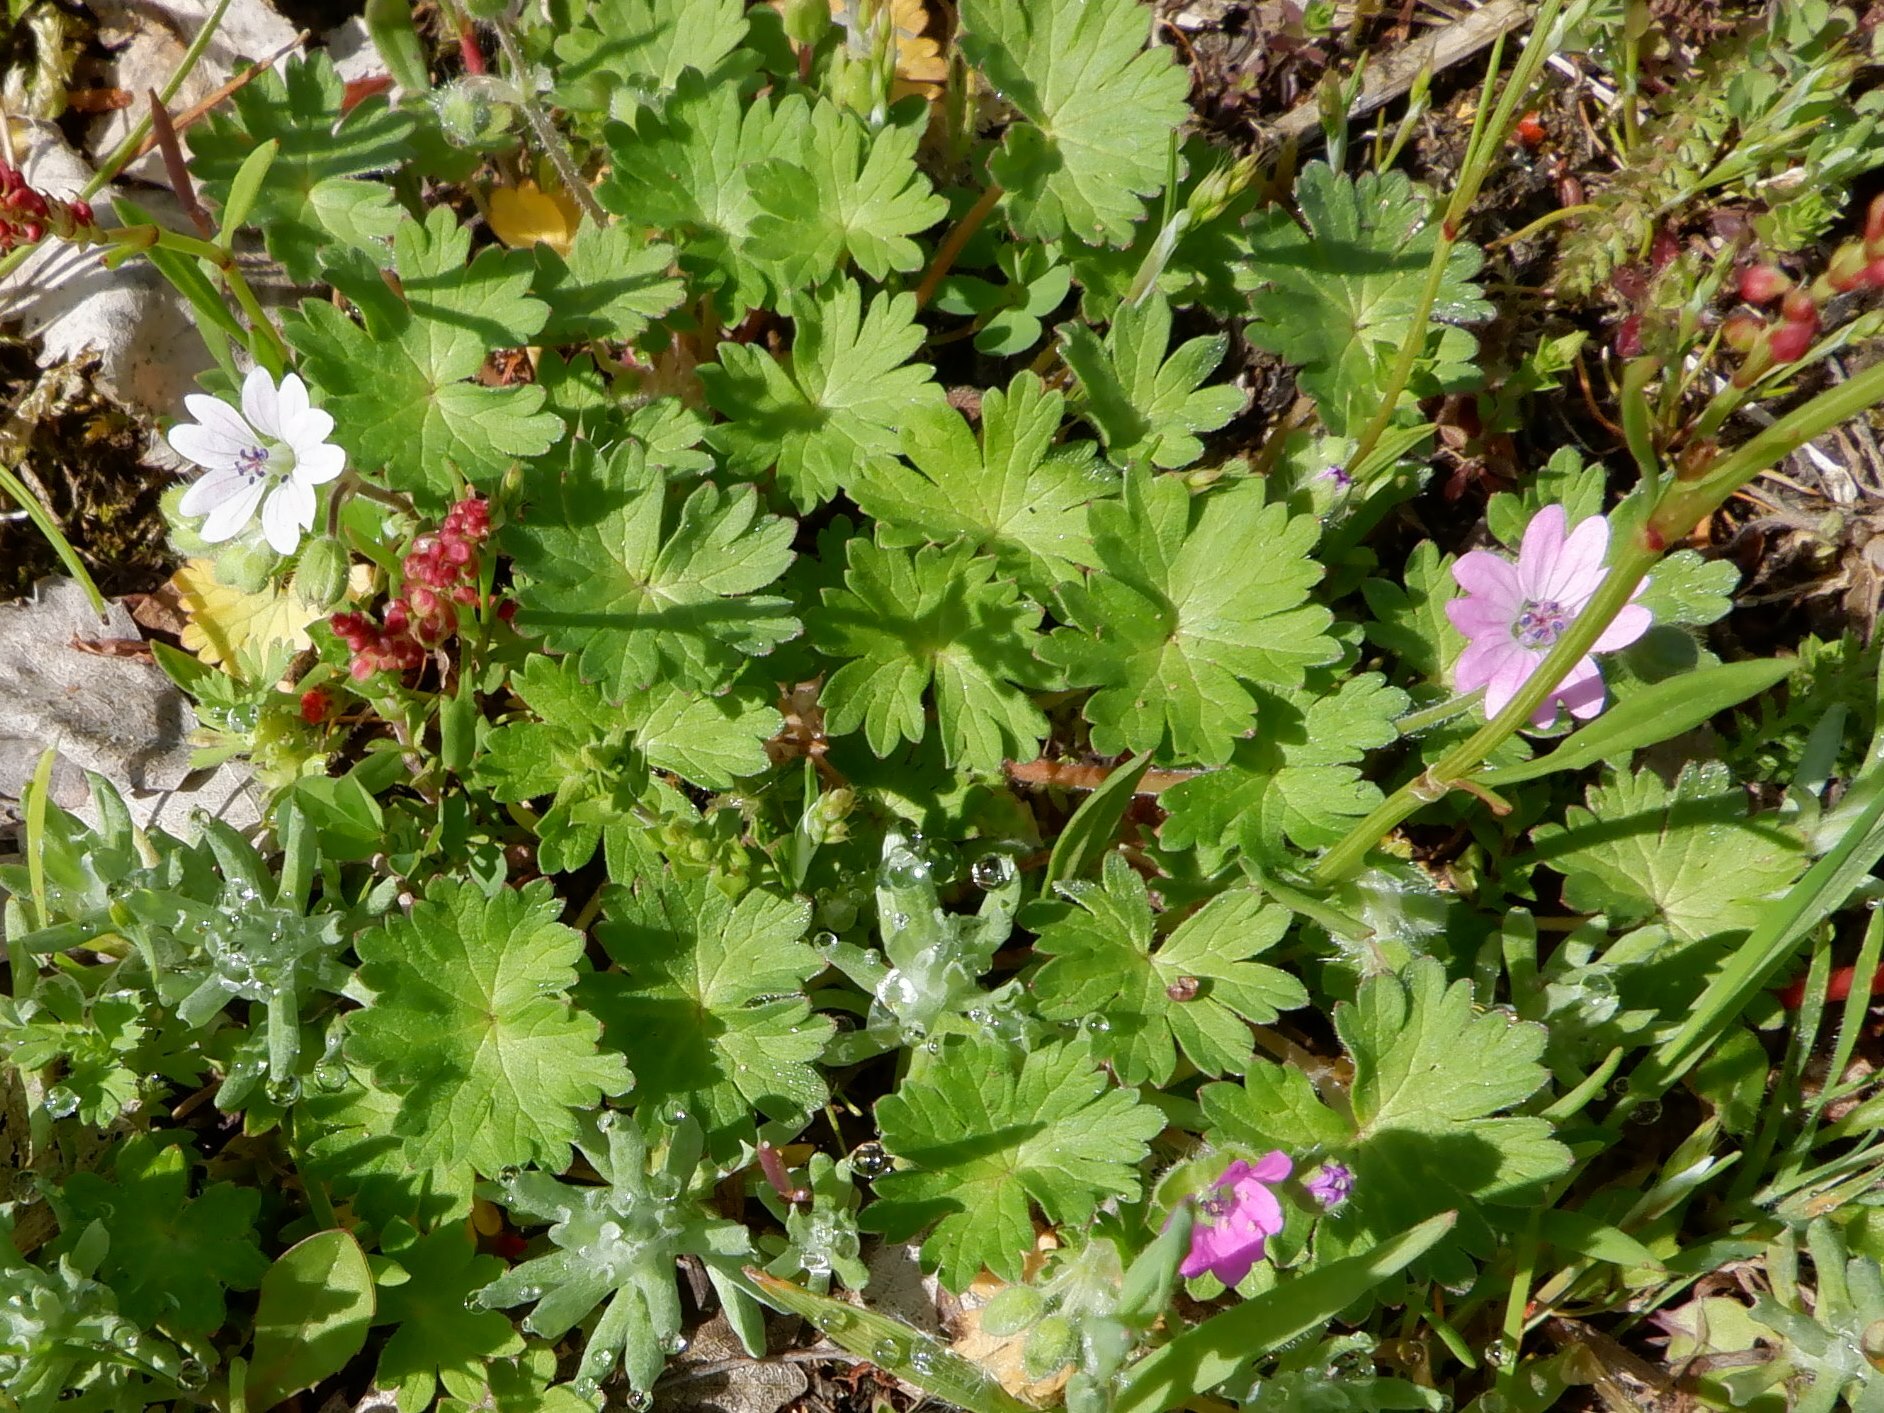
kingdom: Plantae
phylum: Tracheophyta
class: Magnoliopsida
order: Geraniales
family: Geraniaceae
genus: Geranium
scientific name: Geranium molle
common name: Dove's-foot crane's-bill
